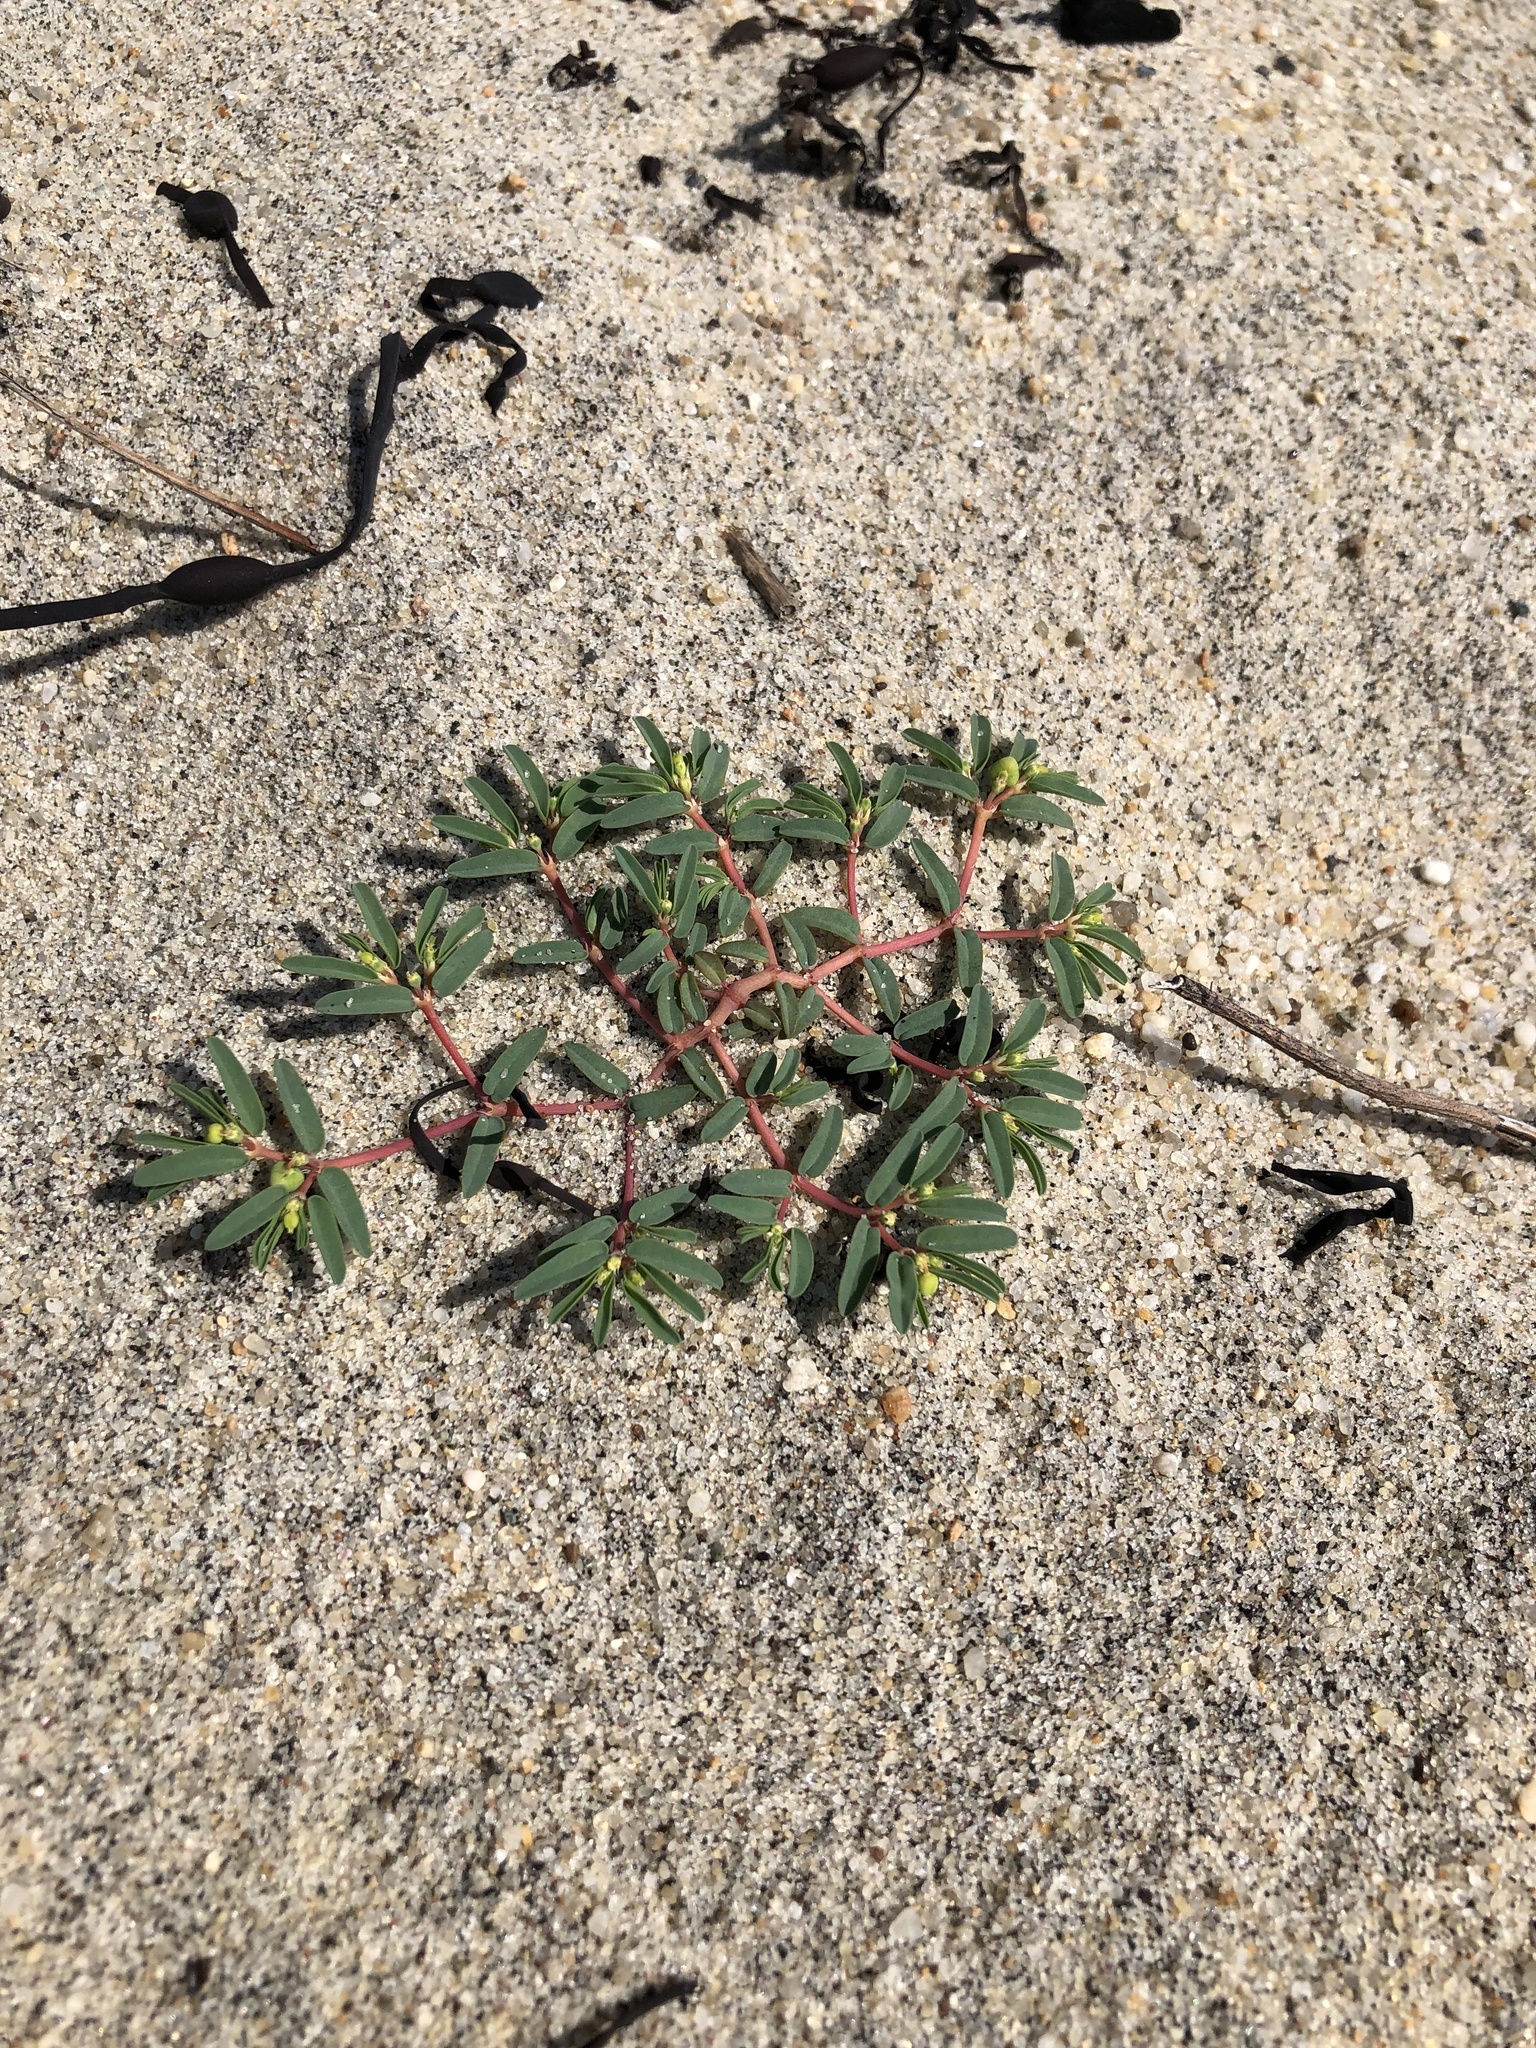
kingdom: Plantae
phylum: Tracheophyta
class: Magnoliopsida
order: Malpighiales
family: Euphorbiaceae
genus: Euphorbia
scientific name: Euphorbia polygonifolia
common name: Knotweed spurge
